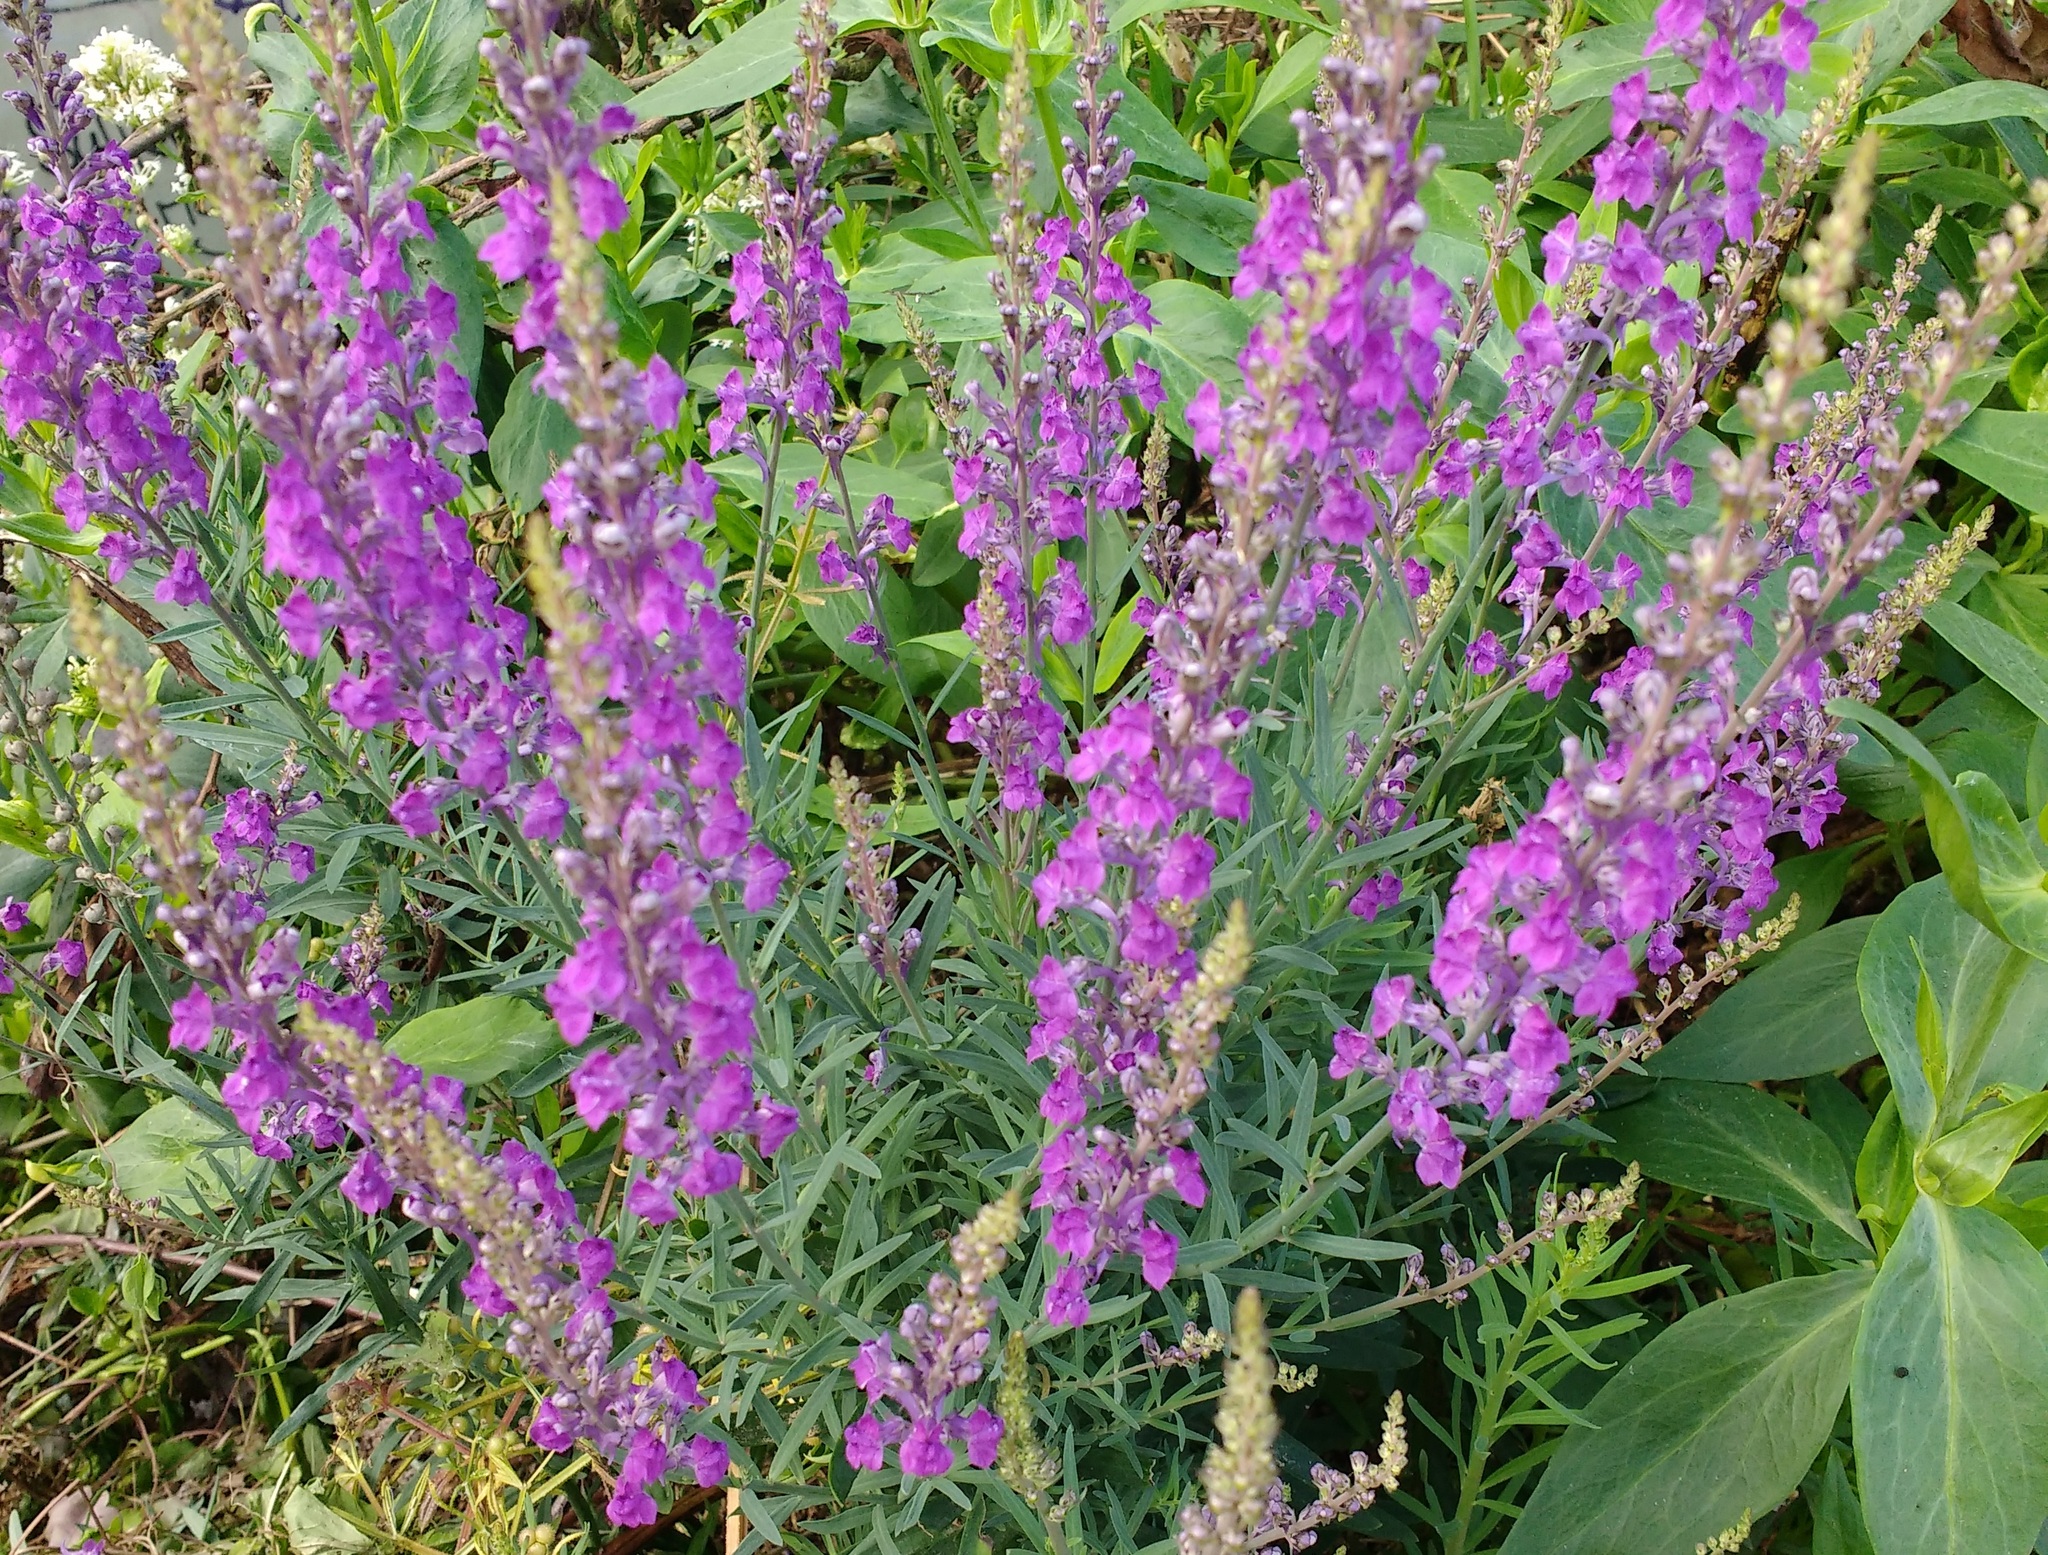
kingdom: Plantae
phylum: Tracheophyta
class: Magnoliopsida
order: Lamiales
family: Plantaginaceae
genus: Linaria
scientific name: Linaria purpurea
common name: Purple toadflax
